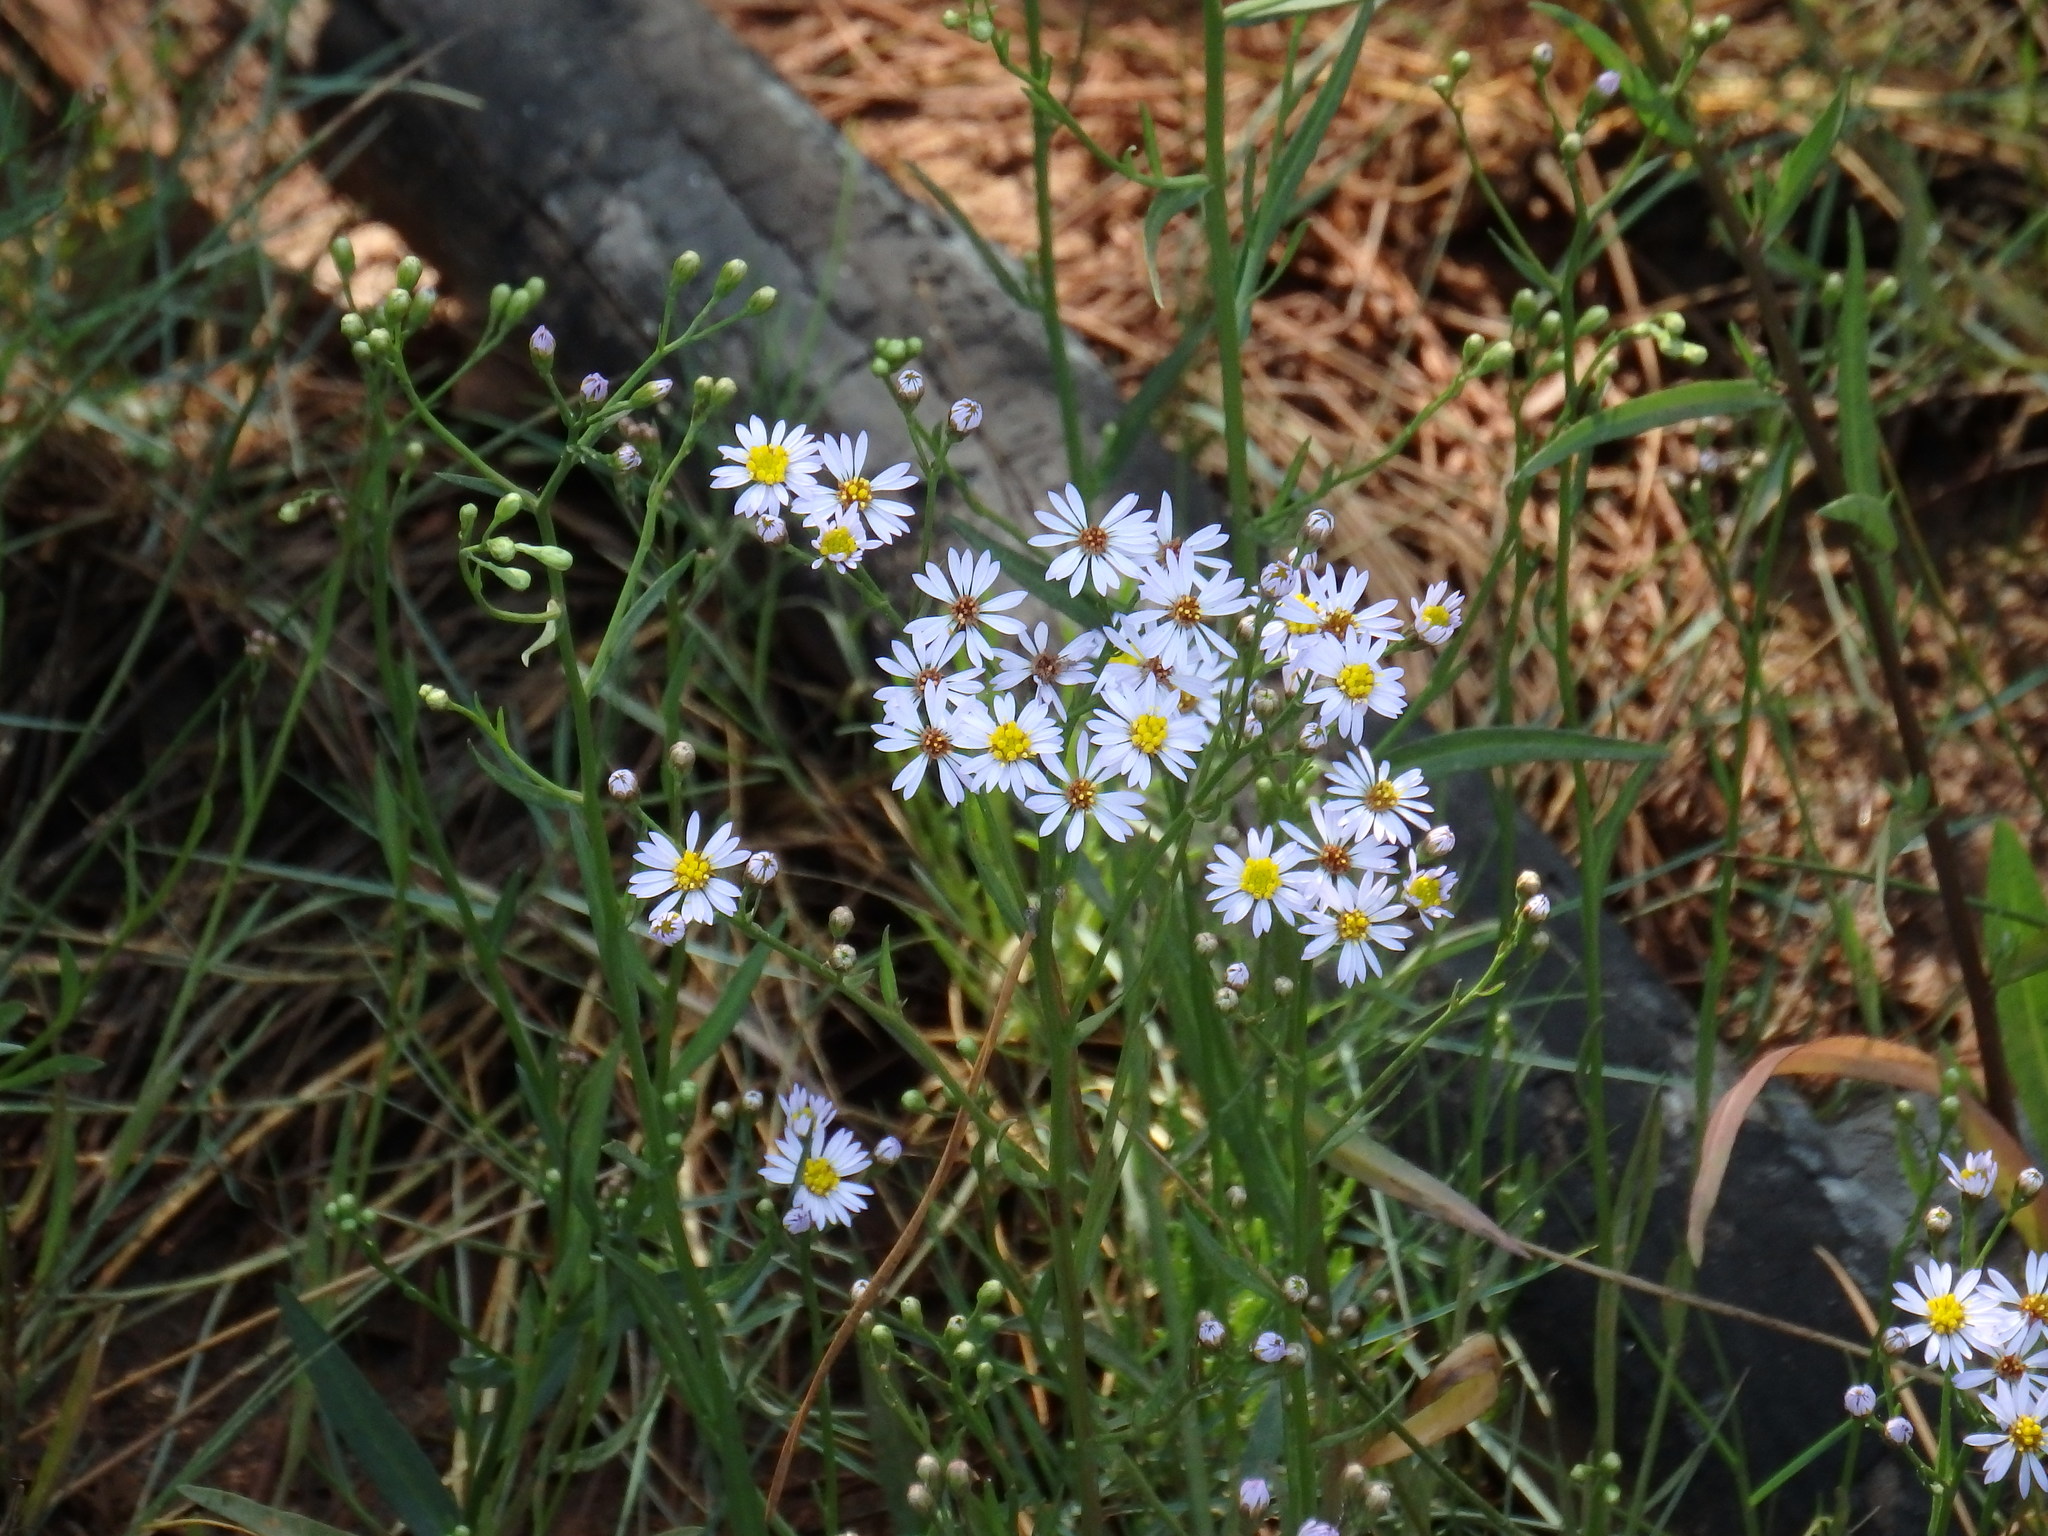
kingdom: Plantae
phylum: Tracheophyta
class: Magnoliopsida
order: Asterales
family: Asteraceae
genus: Tripolium
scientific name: Tripolium pannonicum
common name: Sea aster
